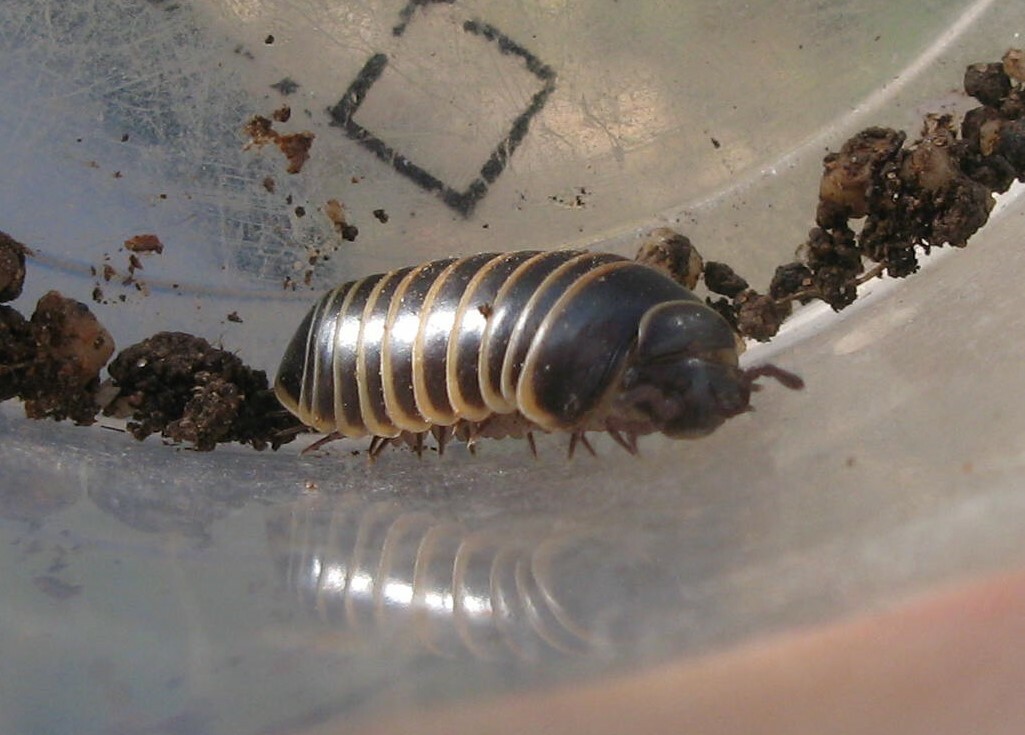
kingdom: Animalia
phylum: Arthropoda
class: Diplopoda
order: Glomerida
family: Glomeridae
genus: Glomeris
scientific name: Glomeris marginata
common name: Bordered pill millipede
